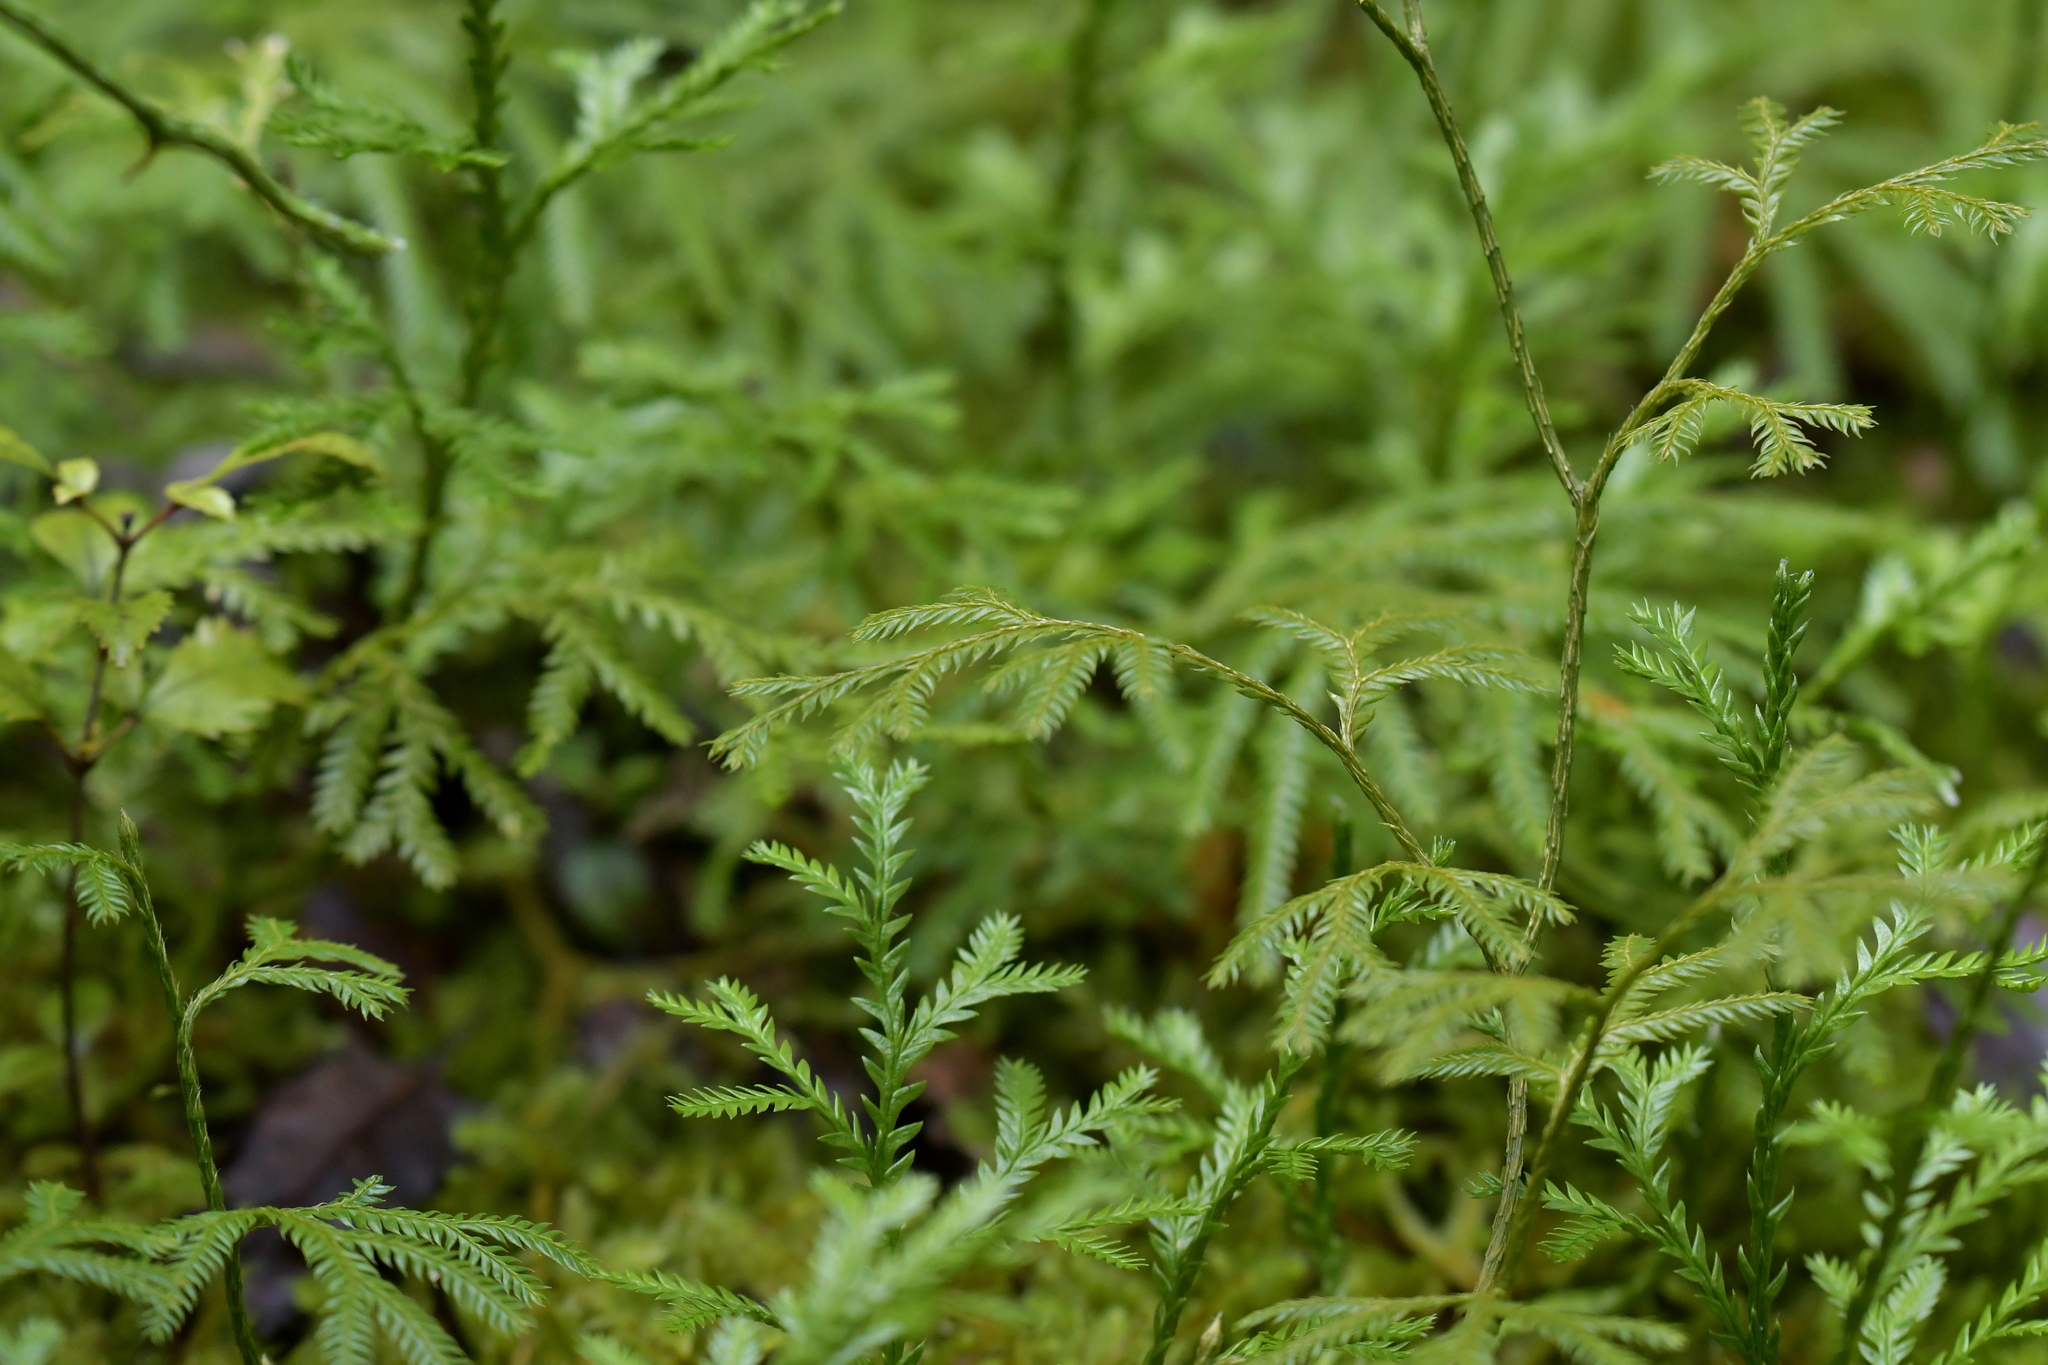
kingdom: Plantae
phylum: Tracheophyta
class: Lycopodiopsida
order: Lycopodiales
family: Lycopodiaceae
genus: Diphasium
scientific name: Diphasium scariosum
